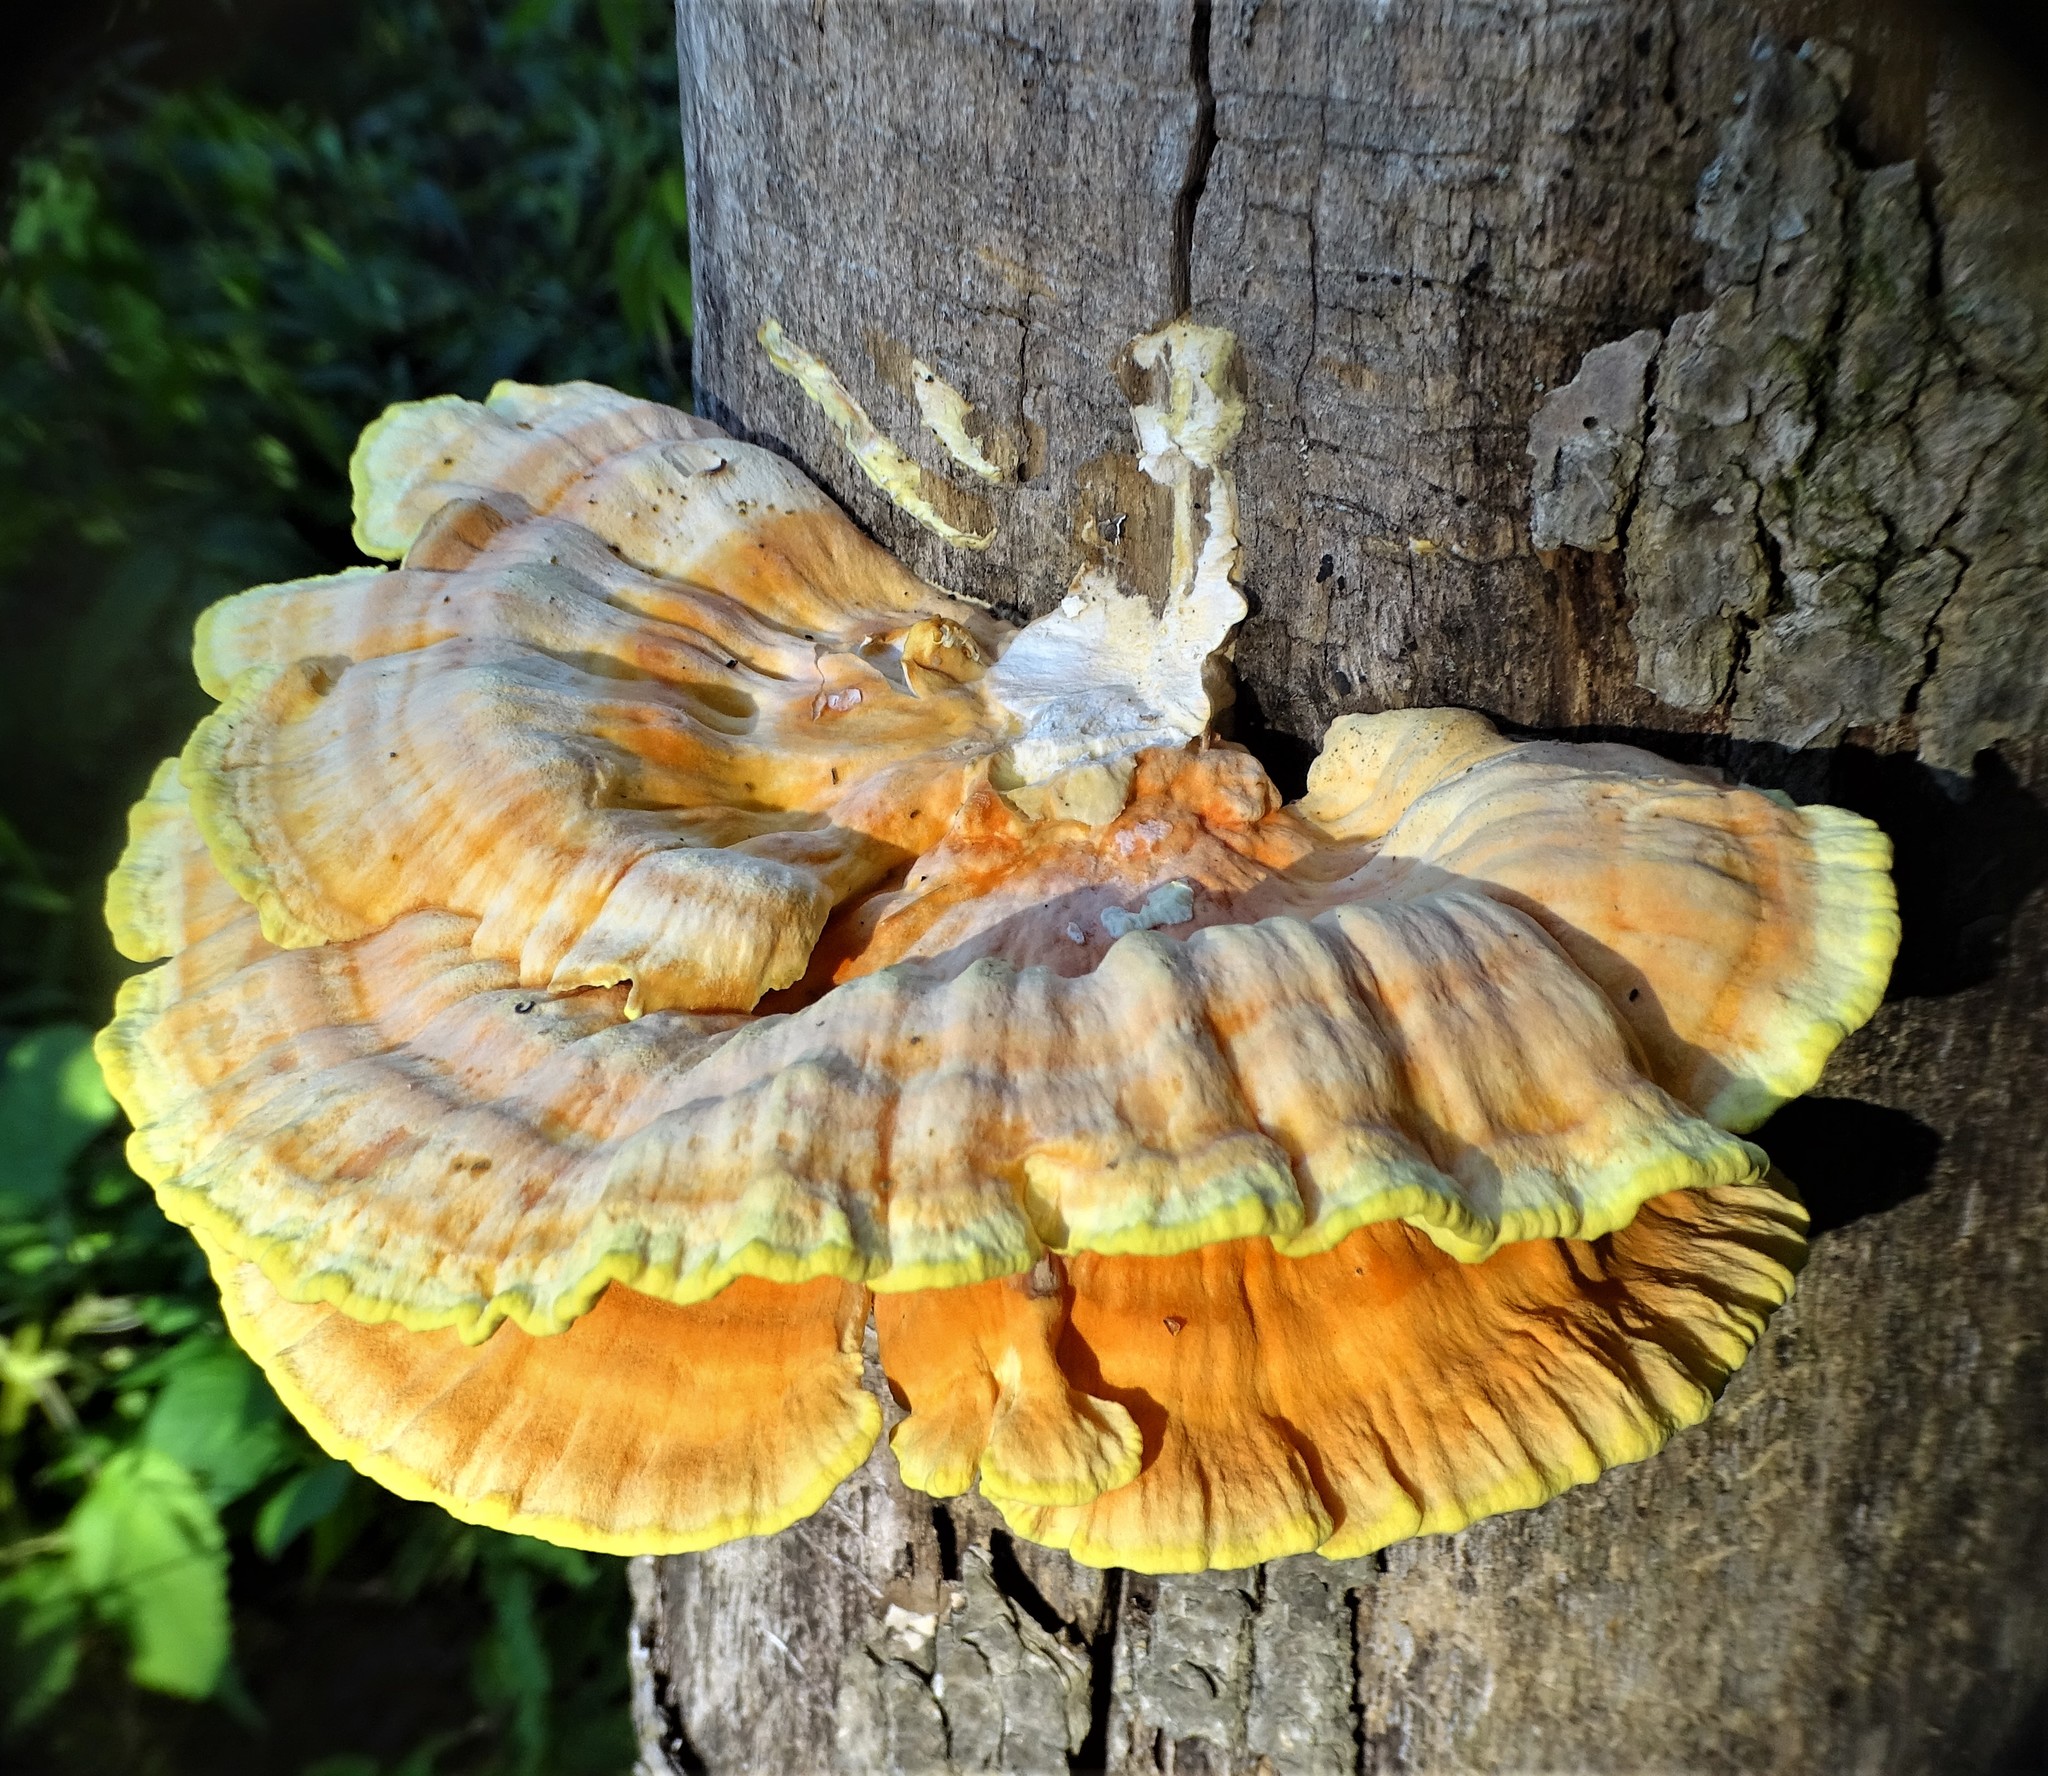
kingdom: Fungi
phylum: Basidiomycota
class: Agaricomycetes
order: Polyporales
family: Laetiporaceae
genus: Laetiporus
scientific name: Laetiporus sulphureus
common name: Chicken of the woods
